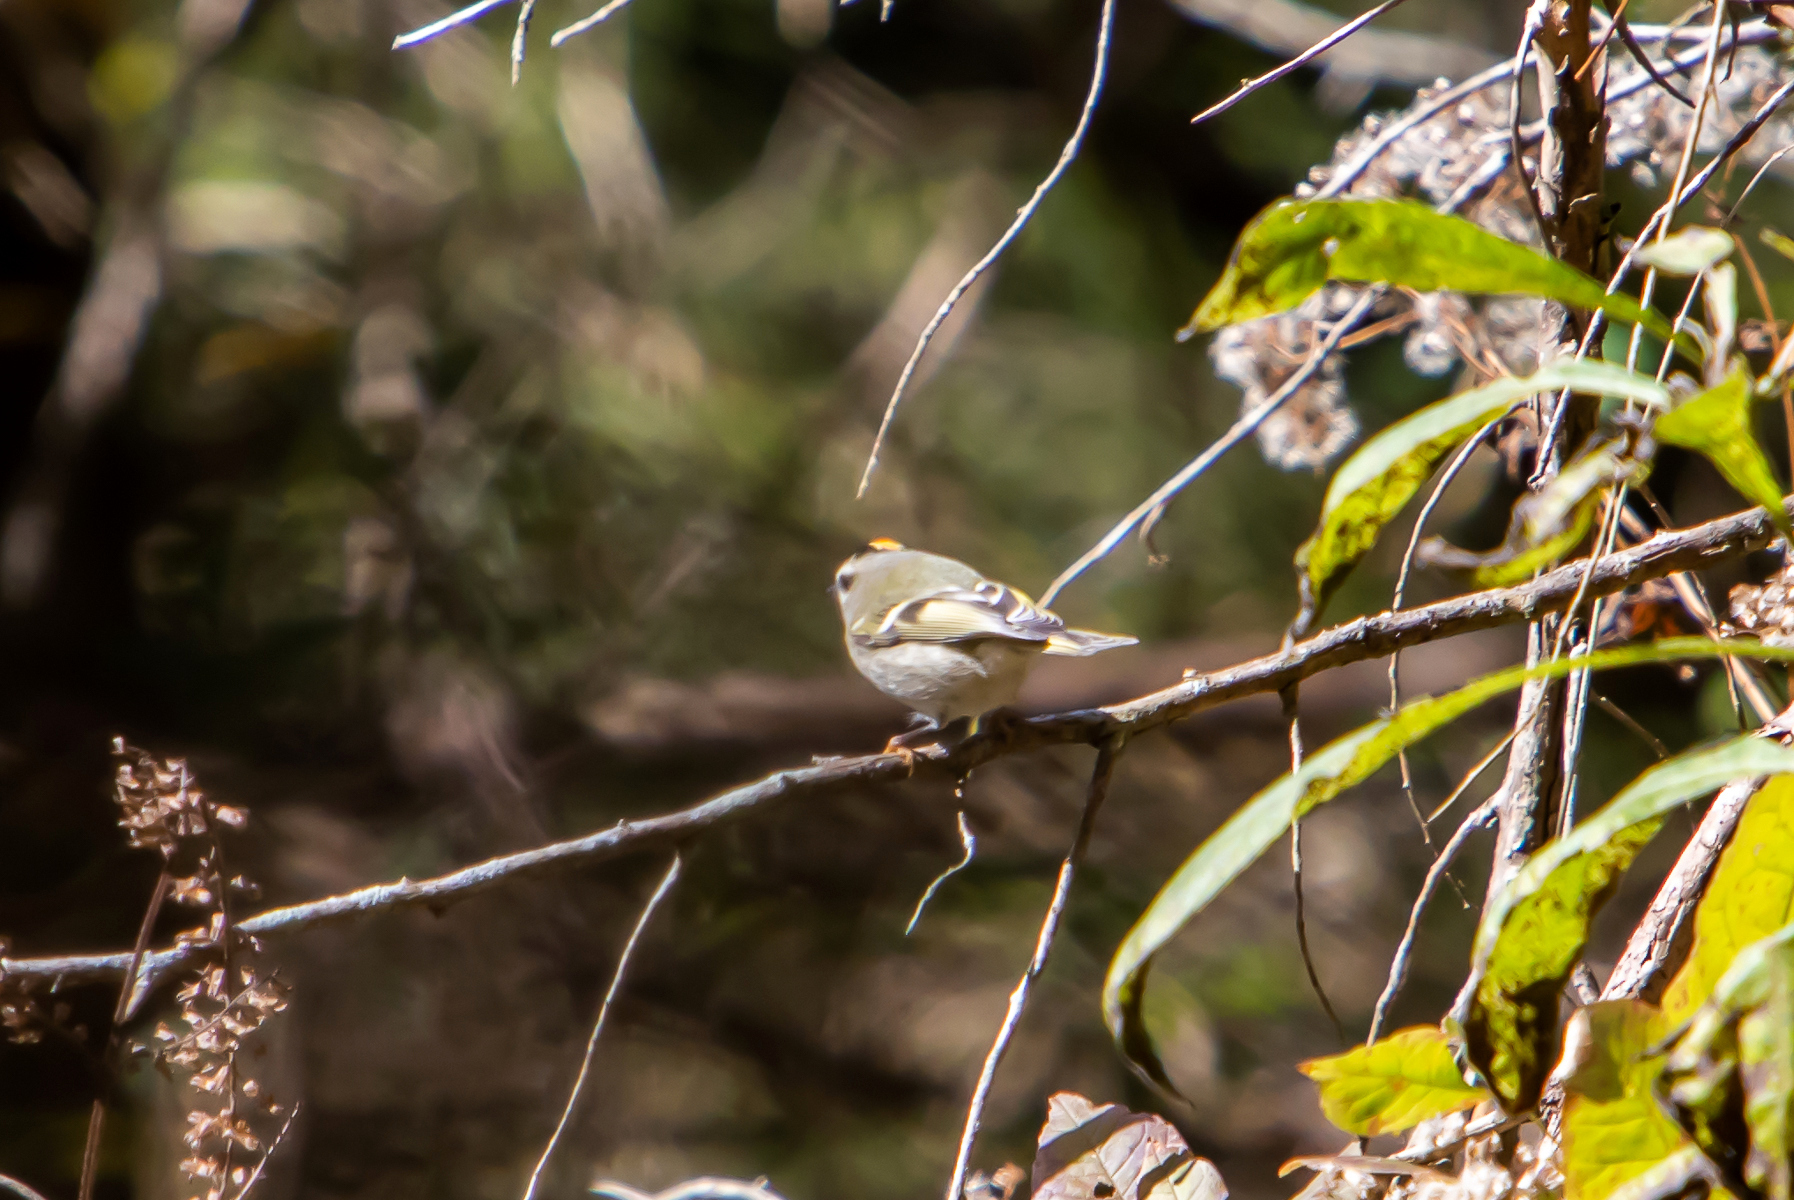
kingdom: Animalia
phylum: Chordata
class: Aves
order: Passeriformes
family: Regulidae
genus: Regulus
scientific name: Regulus satrapa
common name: Golden-crowned kinglet
